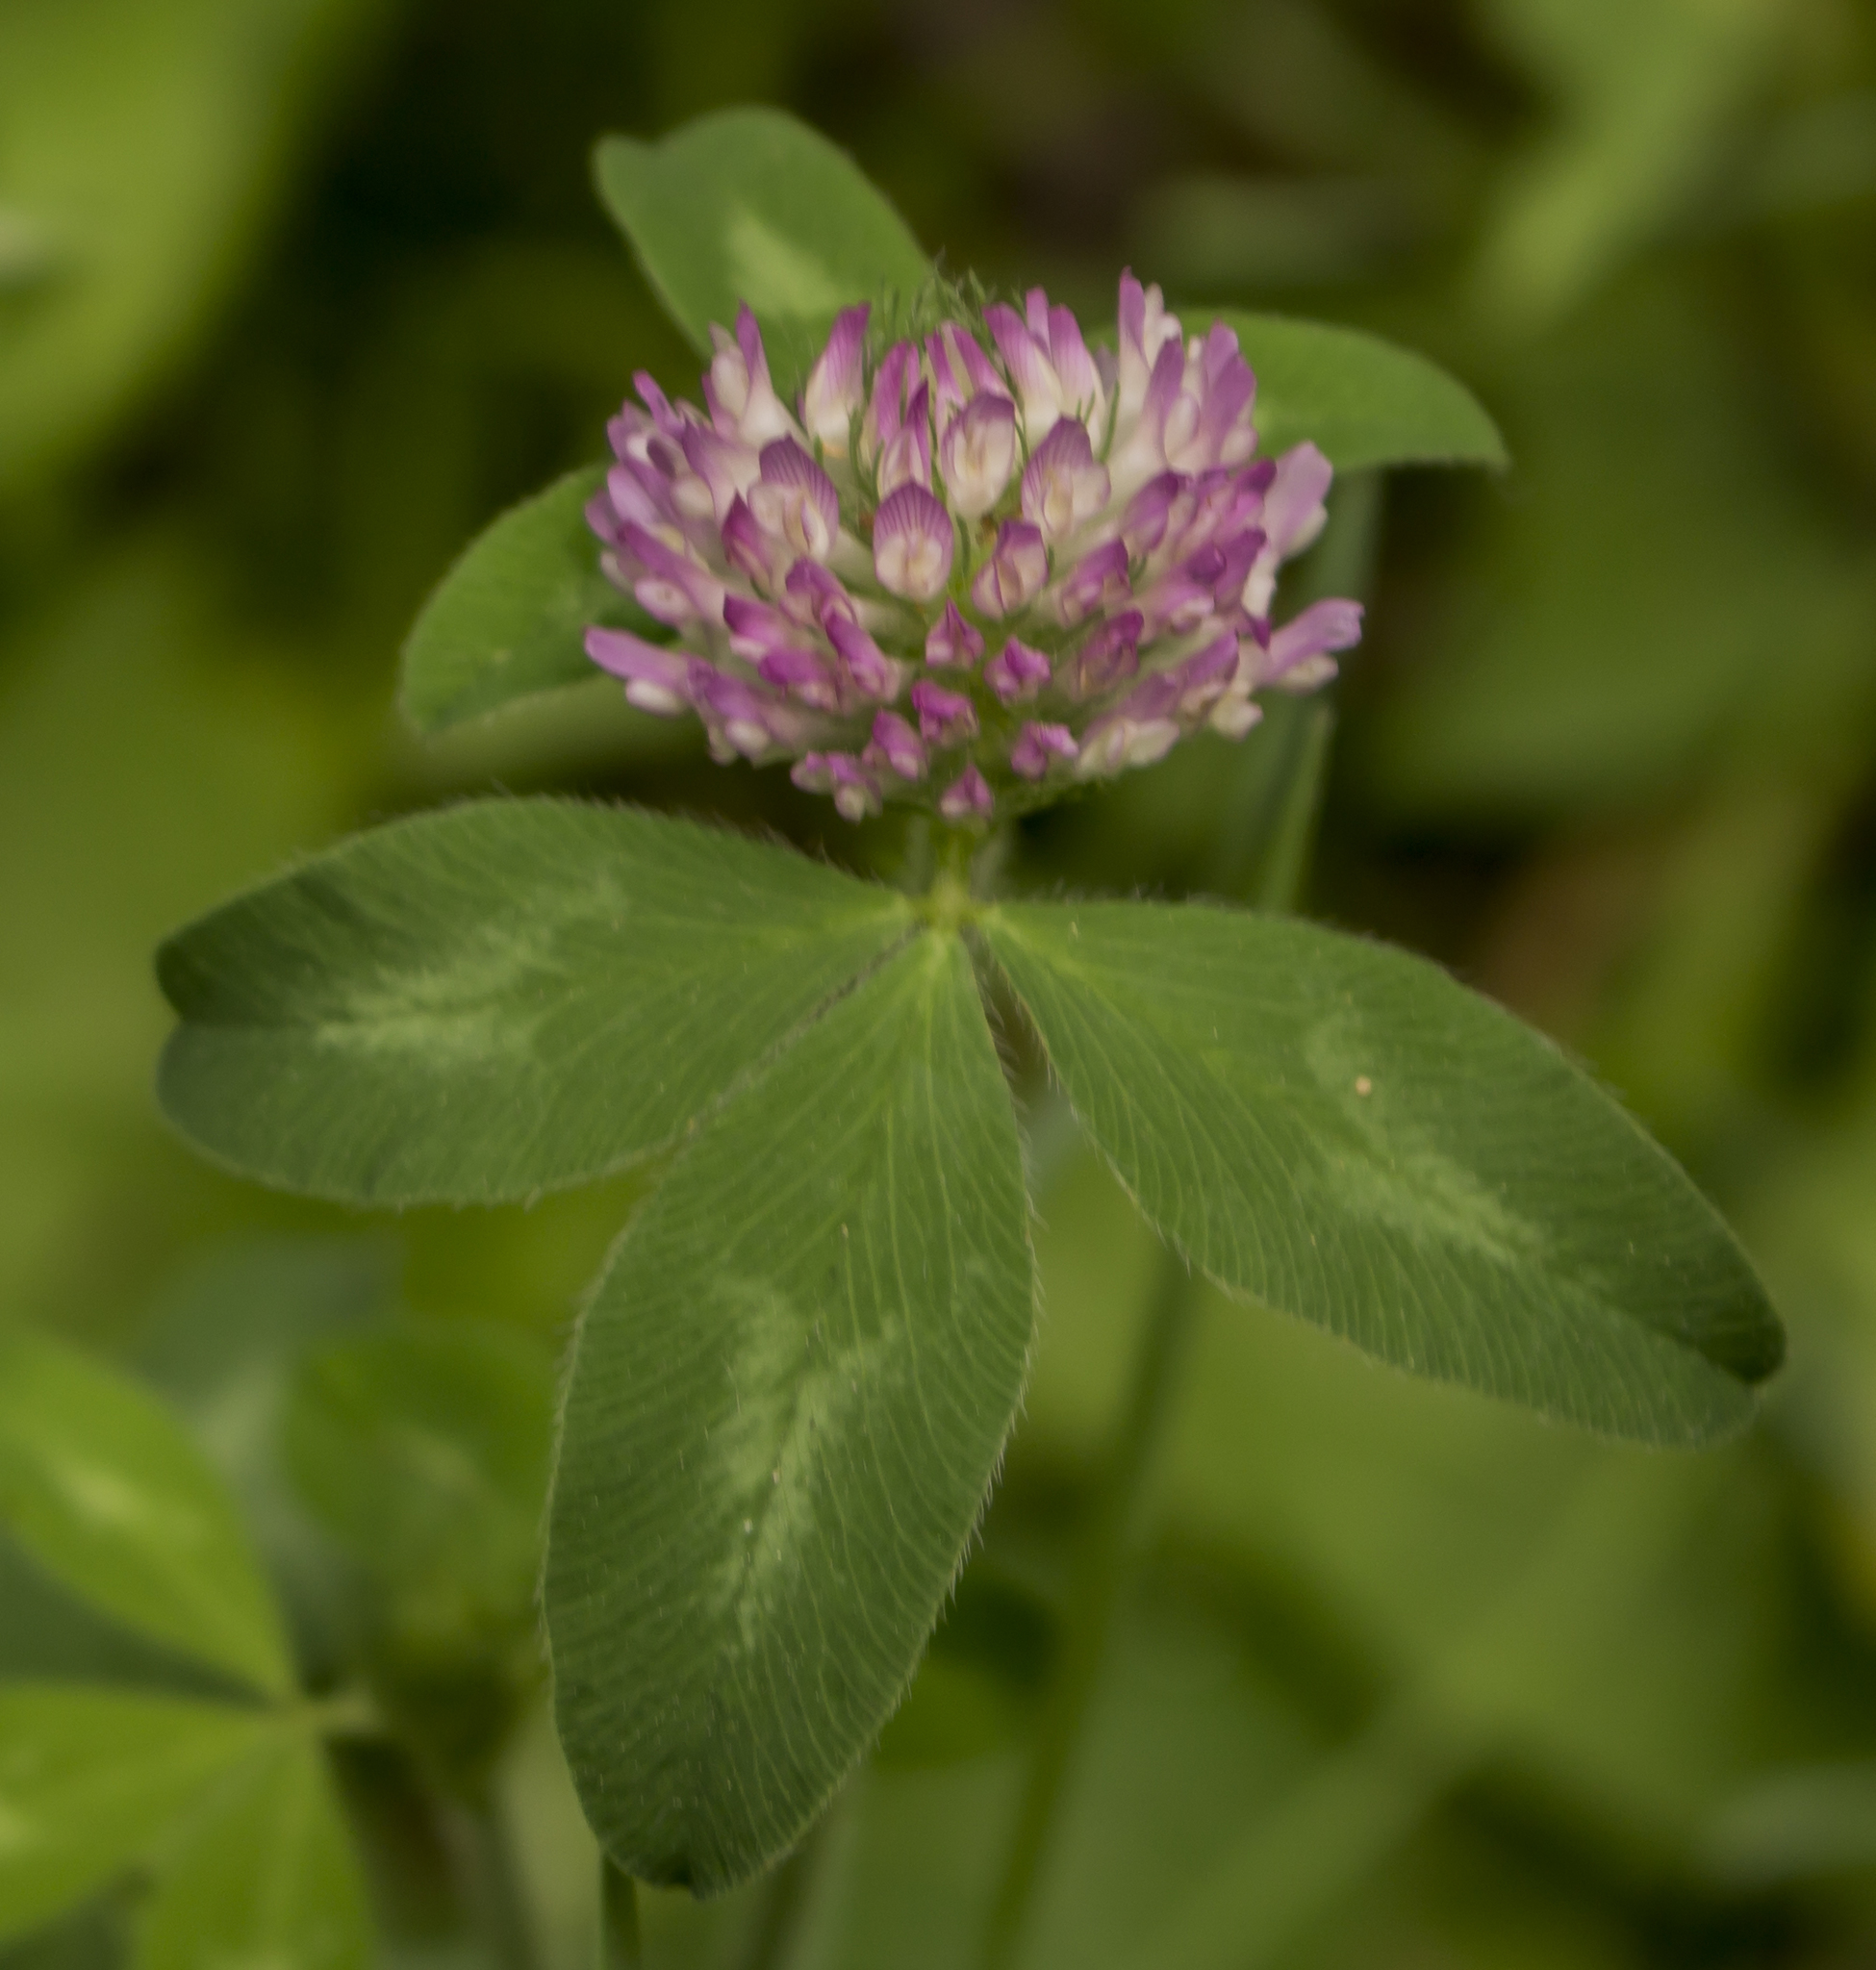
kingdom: Plantae
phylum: Tracheophyta
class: Magnoliopsida
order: Fabales
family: Fabaceae
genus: Trifolium
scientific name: Trifolium pratense
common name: Red clover
